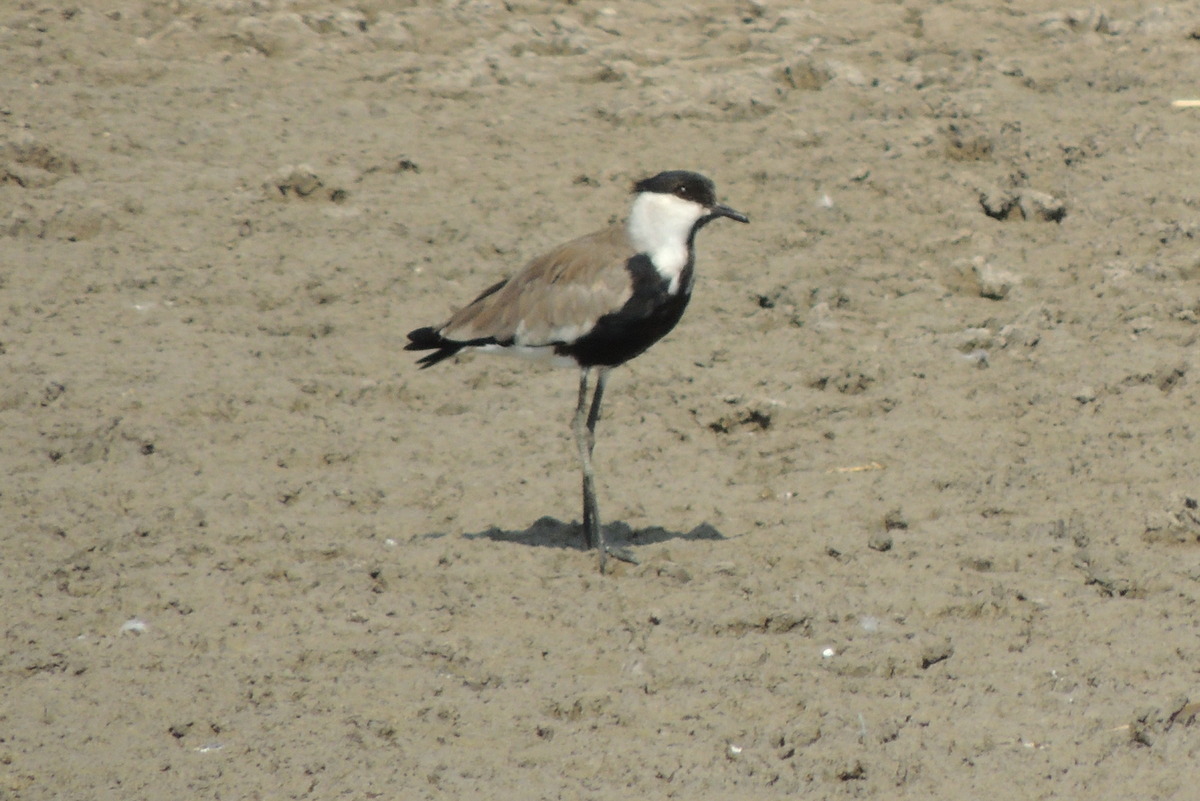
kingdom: Animalia
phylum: Chordata
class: Aves
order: Charadriiformes
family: Charadriidae
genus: Vanellus
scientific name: Vanellus spinosus
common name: Spur-winged lapwing
